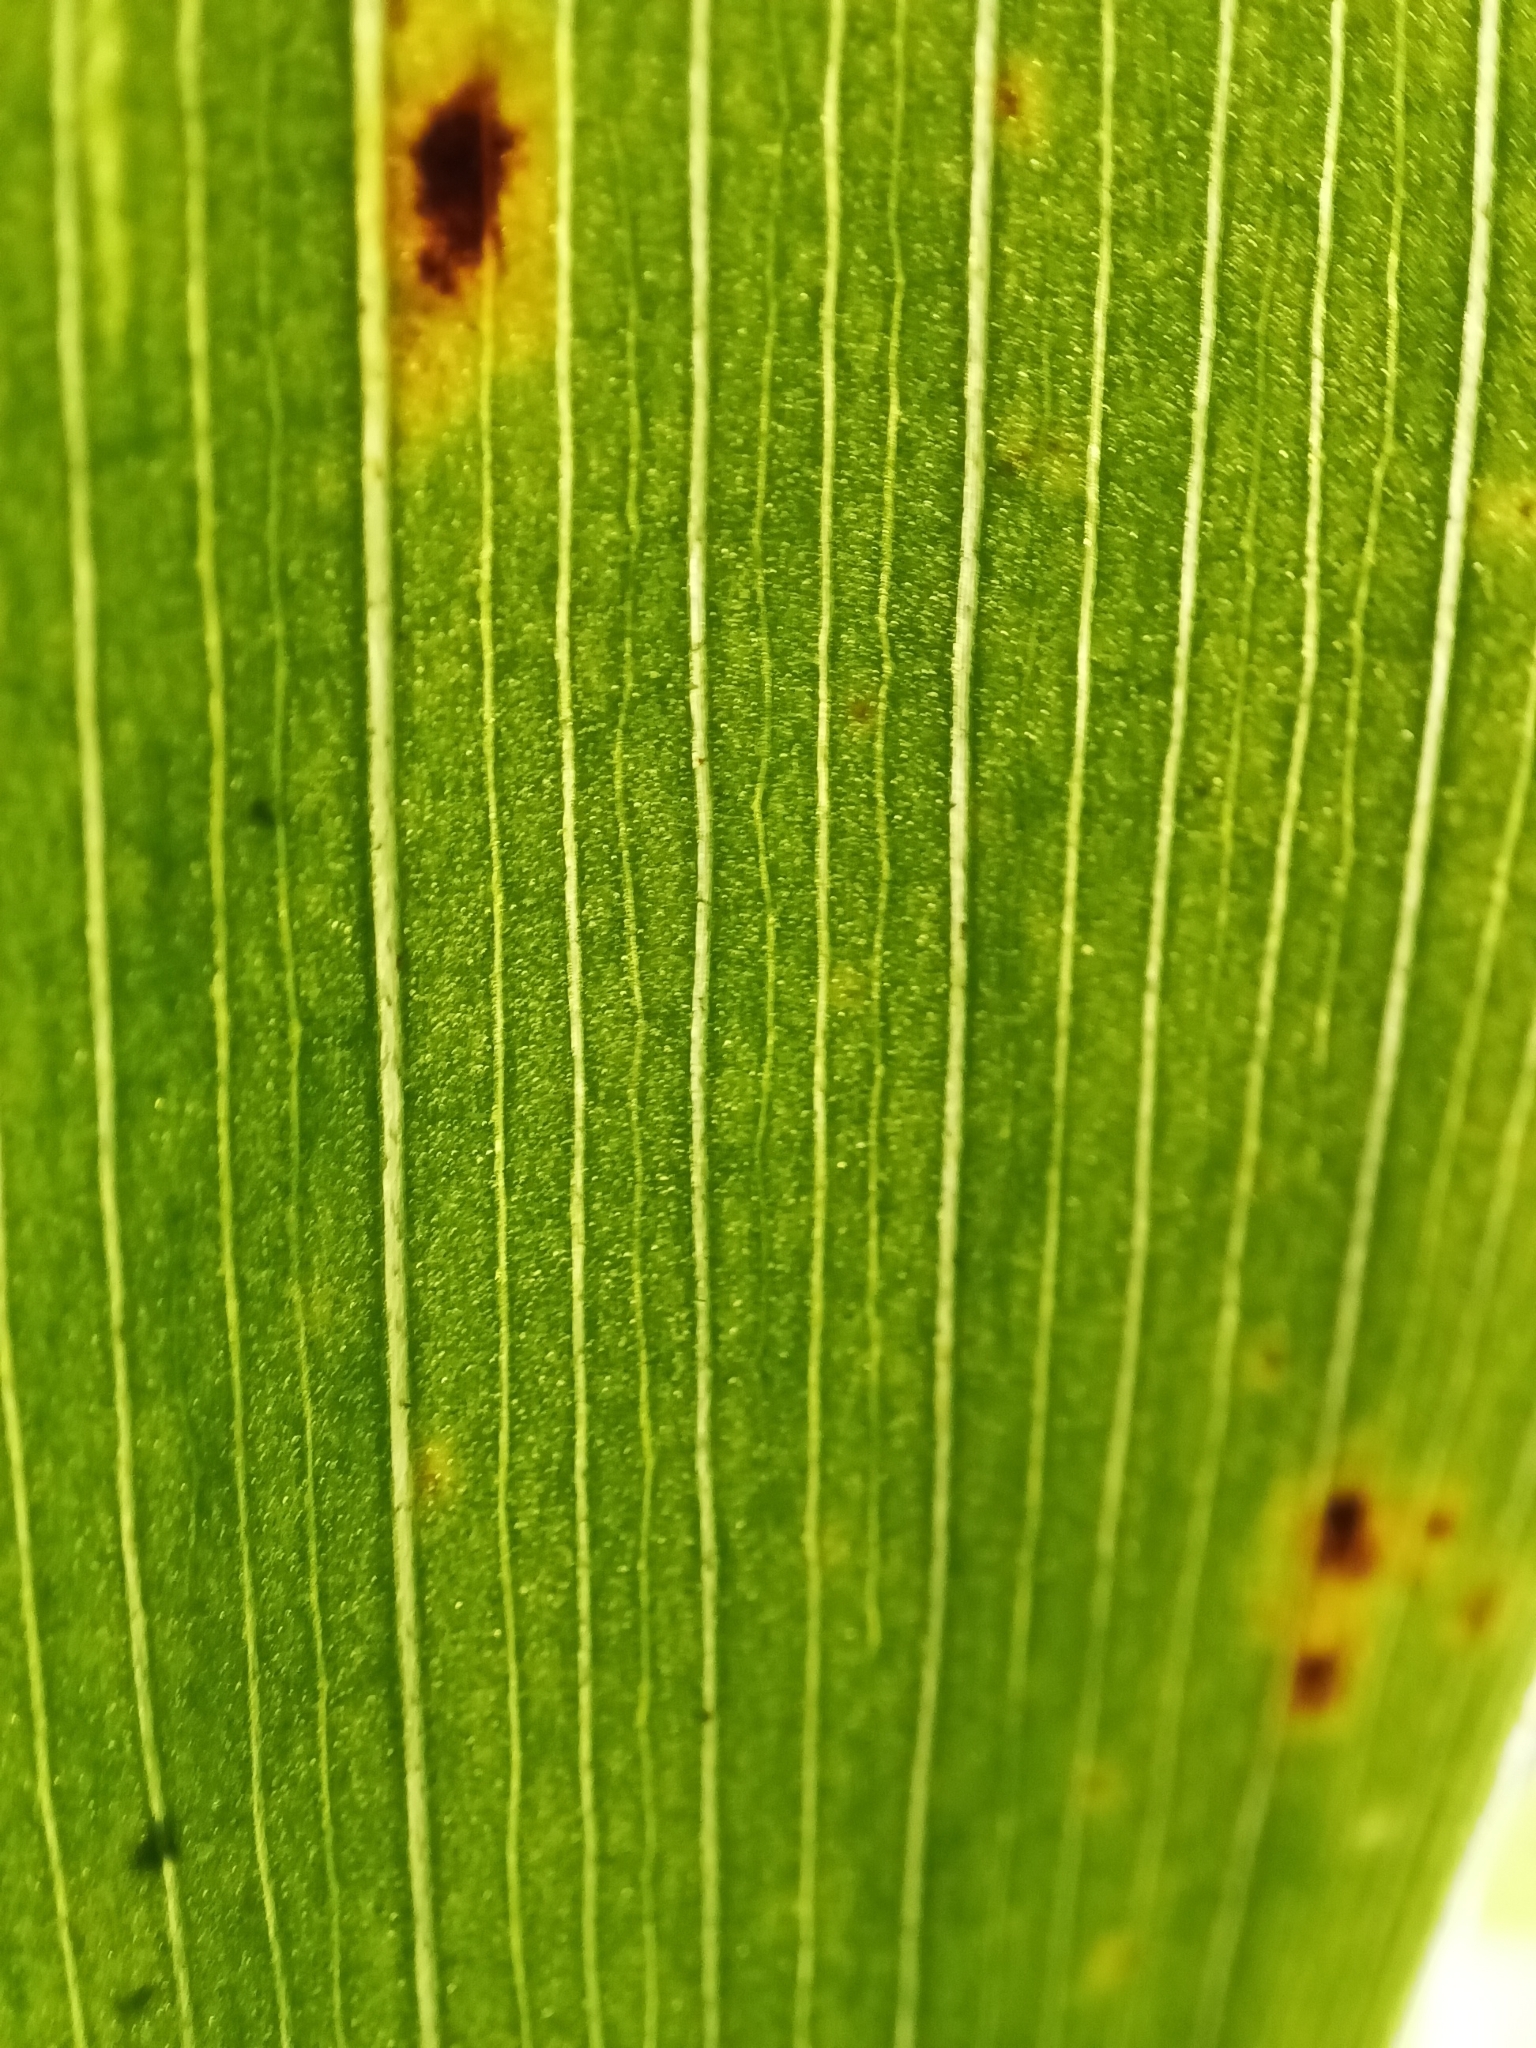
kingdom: Plantae
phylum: Tracheophyta
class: Liliopsida
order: Liliales
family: Alstroemeriaceae
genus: Bomarea
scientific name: Bomarea multiflora
